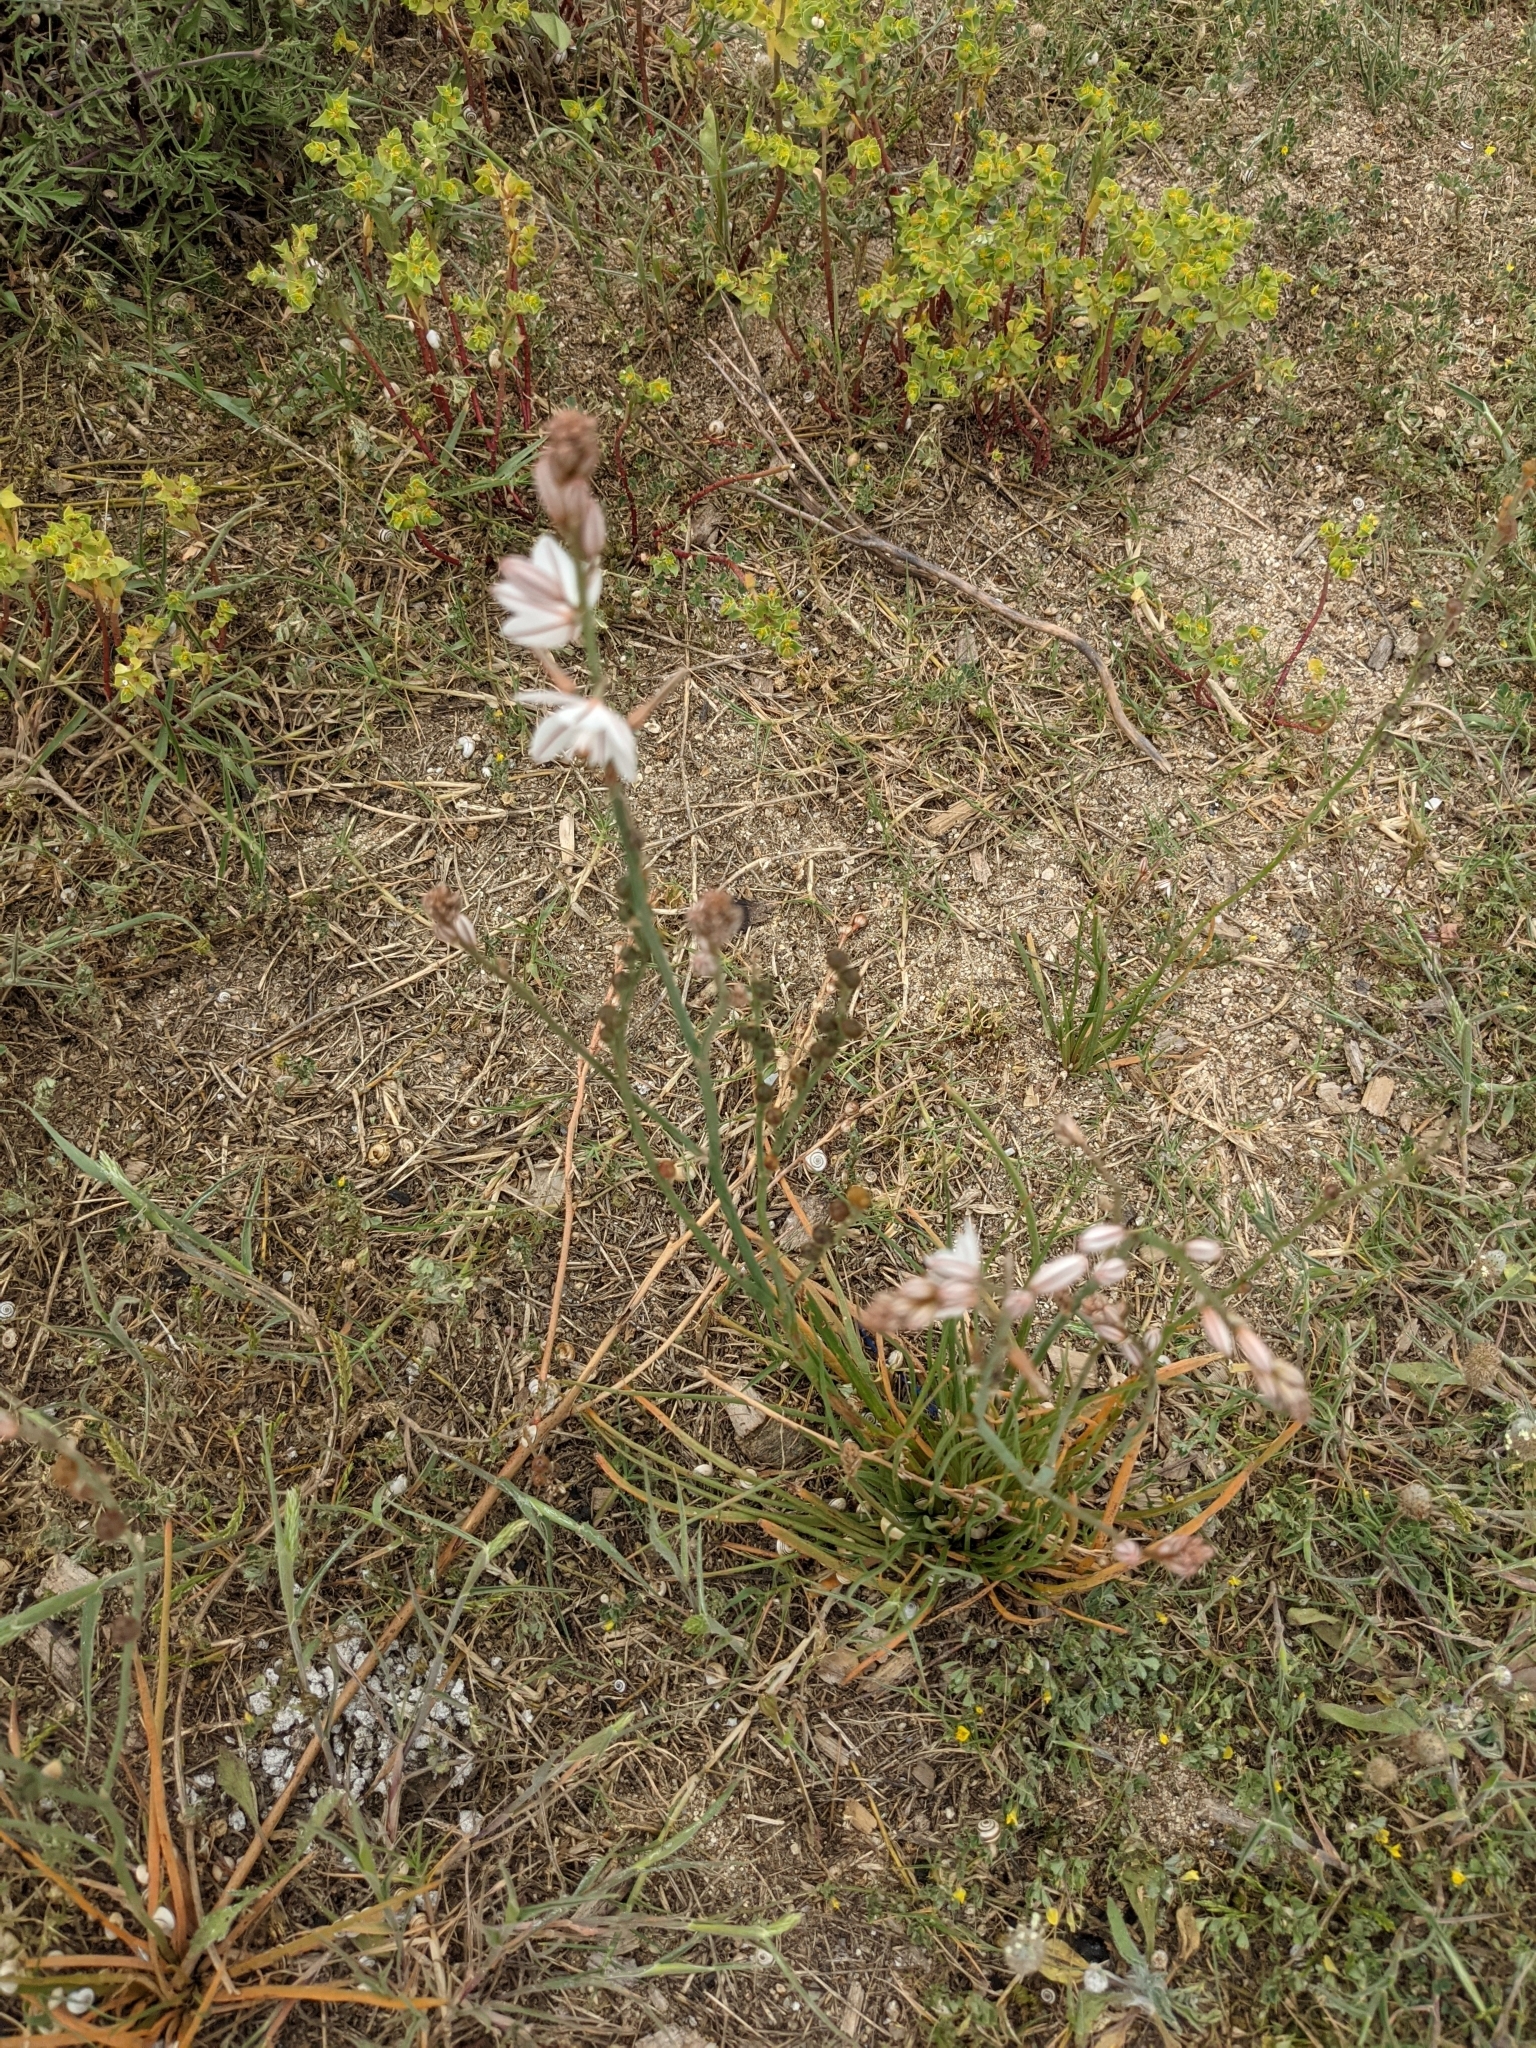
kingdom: Plantae
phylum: Tracheophyta
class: Liliopsida
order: Asparagales
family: Asphodelaceae
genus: Asphodelus
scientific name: Asphodelus fistulosus
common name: Onionweed
